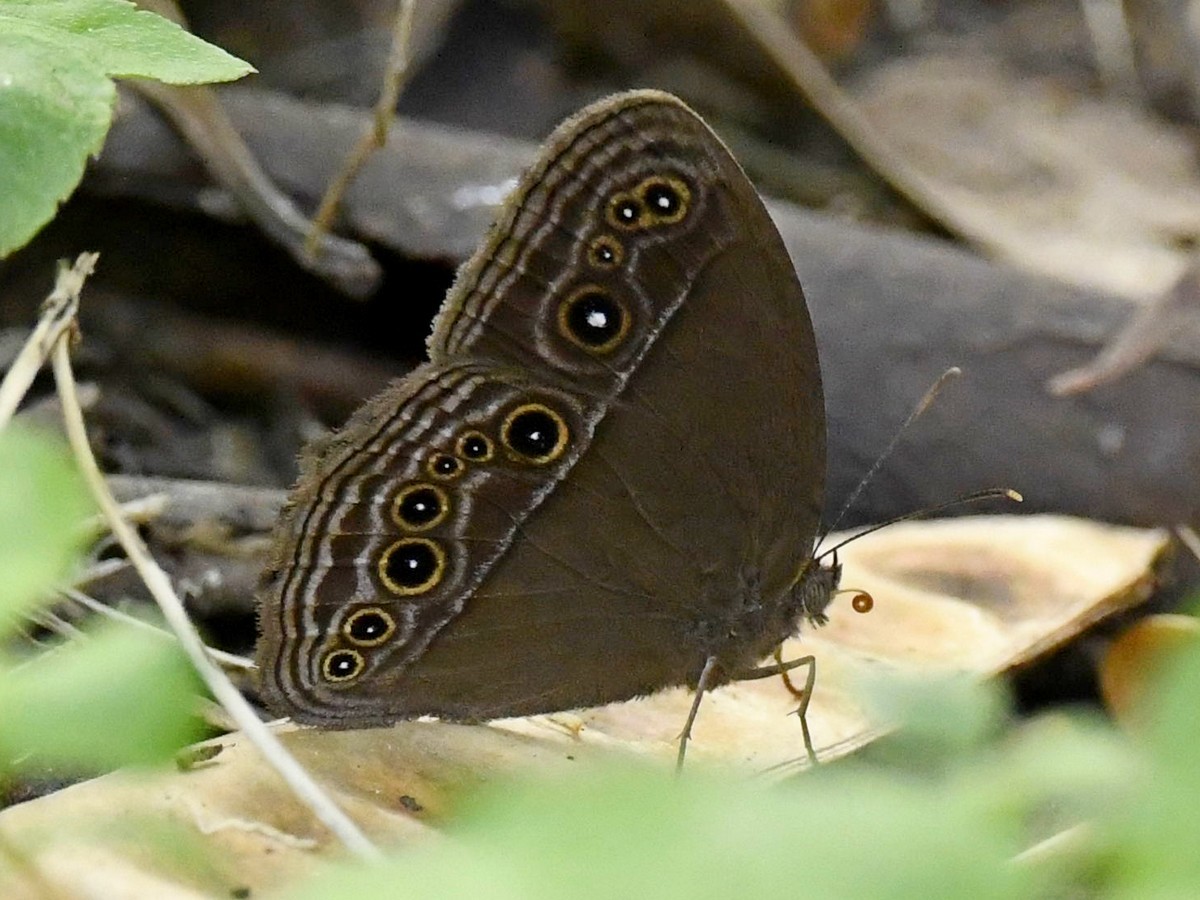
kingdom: Animalia
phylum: Arthropoda
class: Insecta
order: Lepidoptera
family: Nymphalidae
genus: Mycalesis
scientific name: Mycalesis perseus
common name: Dingy bushbrown
